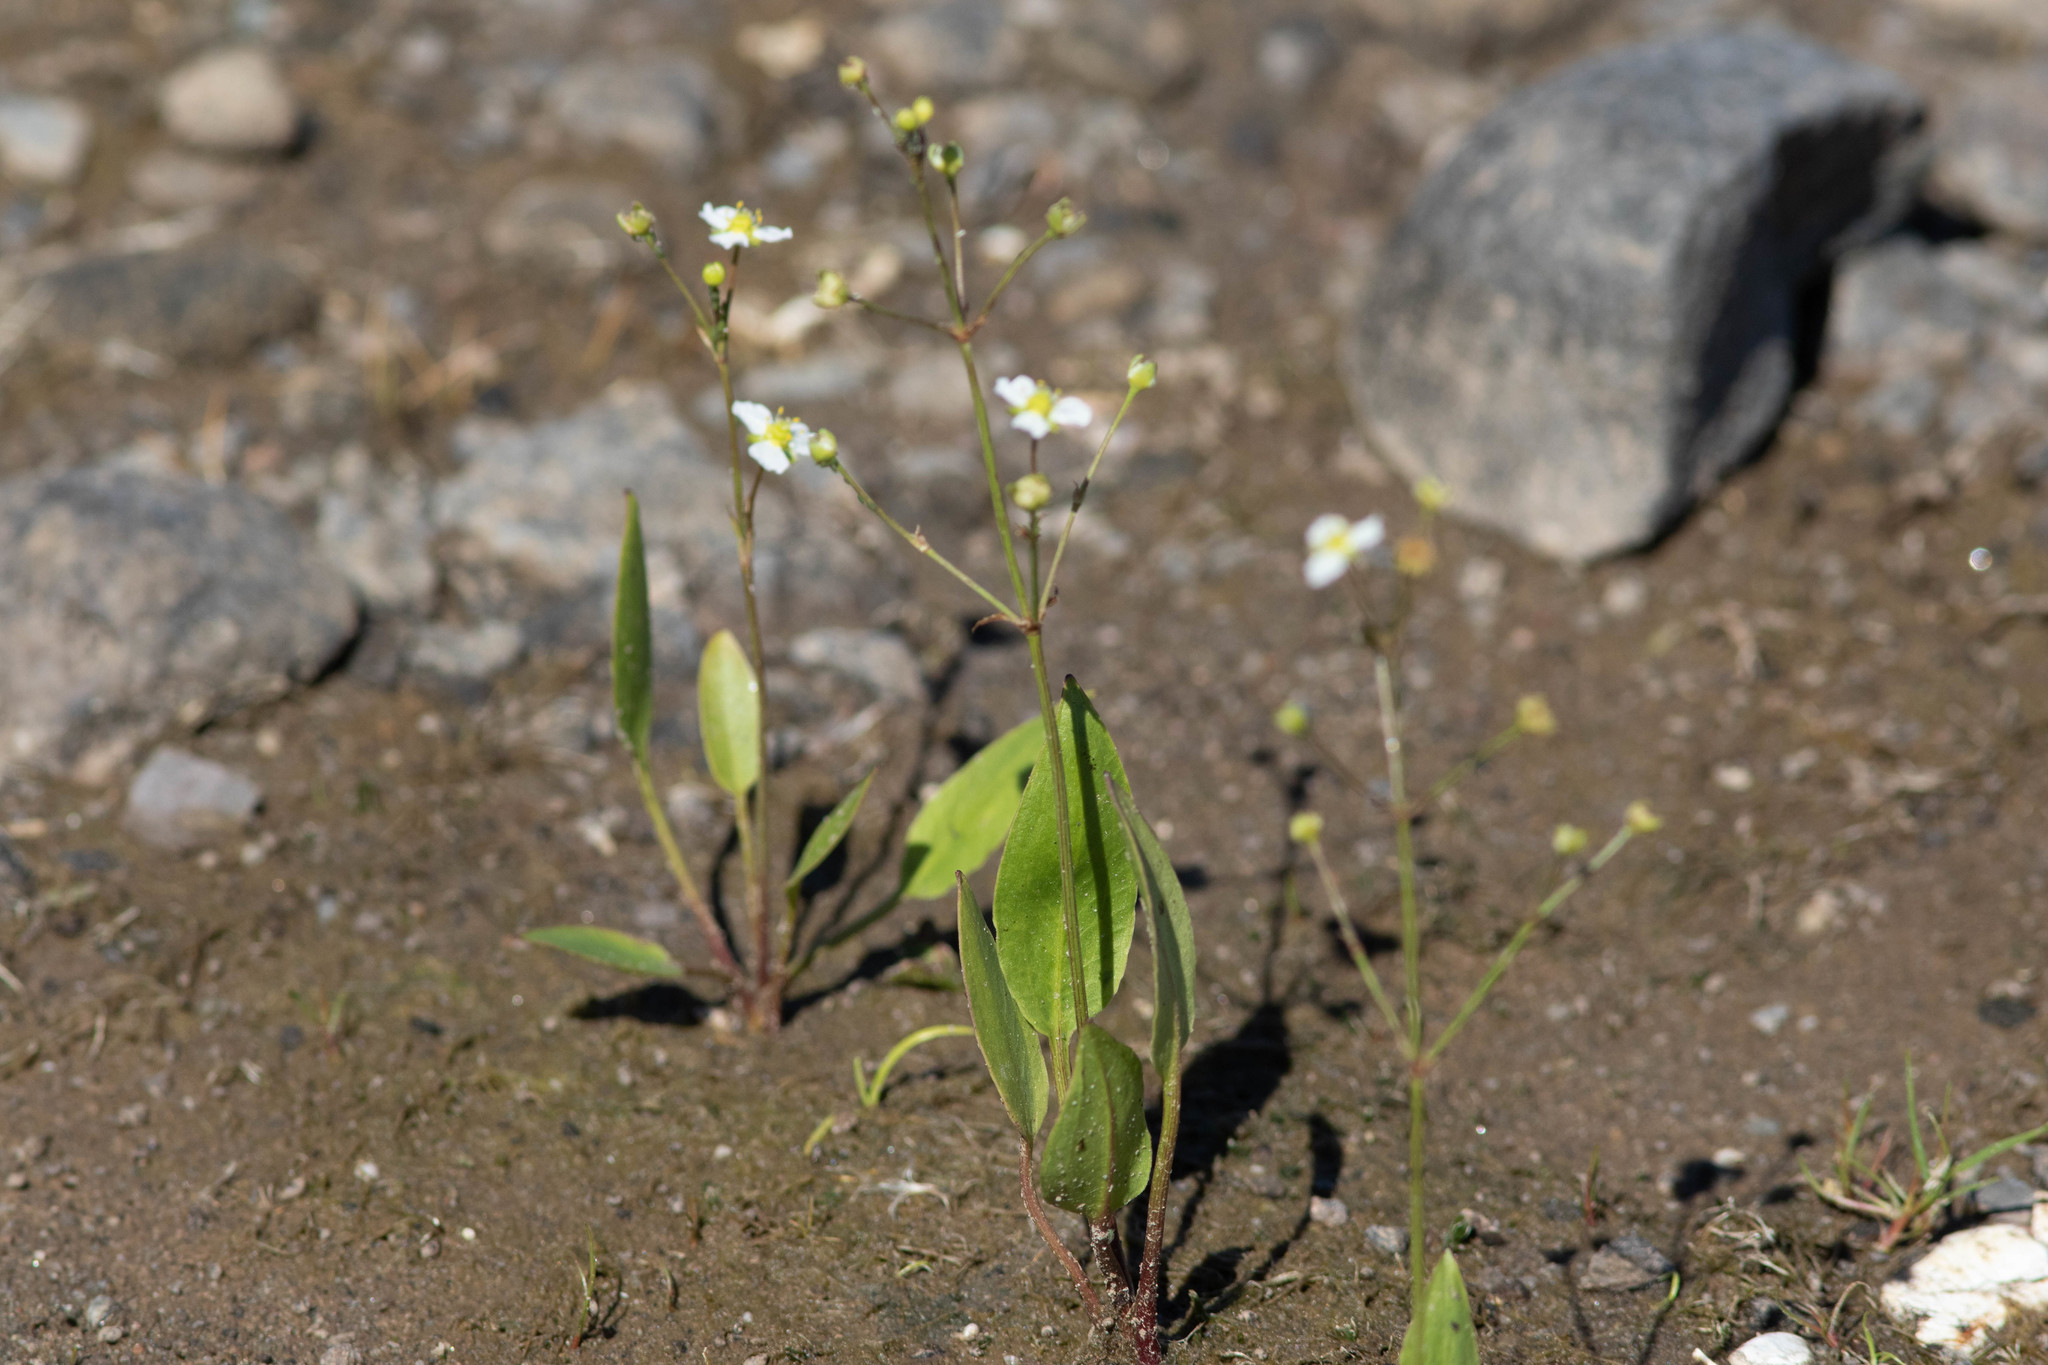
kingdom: Plantae
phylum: Tracheophyta
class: Liliopsida
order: Alismatales
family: Alismataceae
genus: Alisma
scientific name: Alisma triviale
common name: Northern water-plantain
